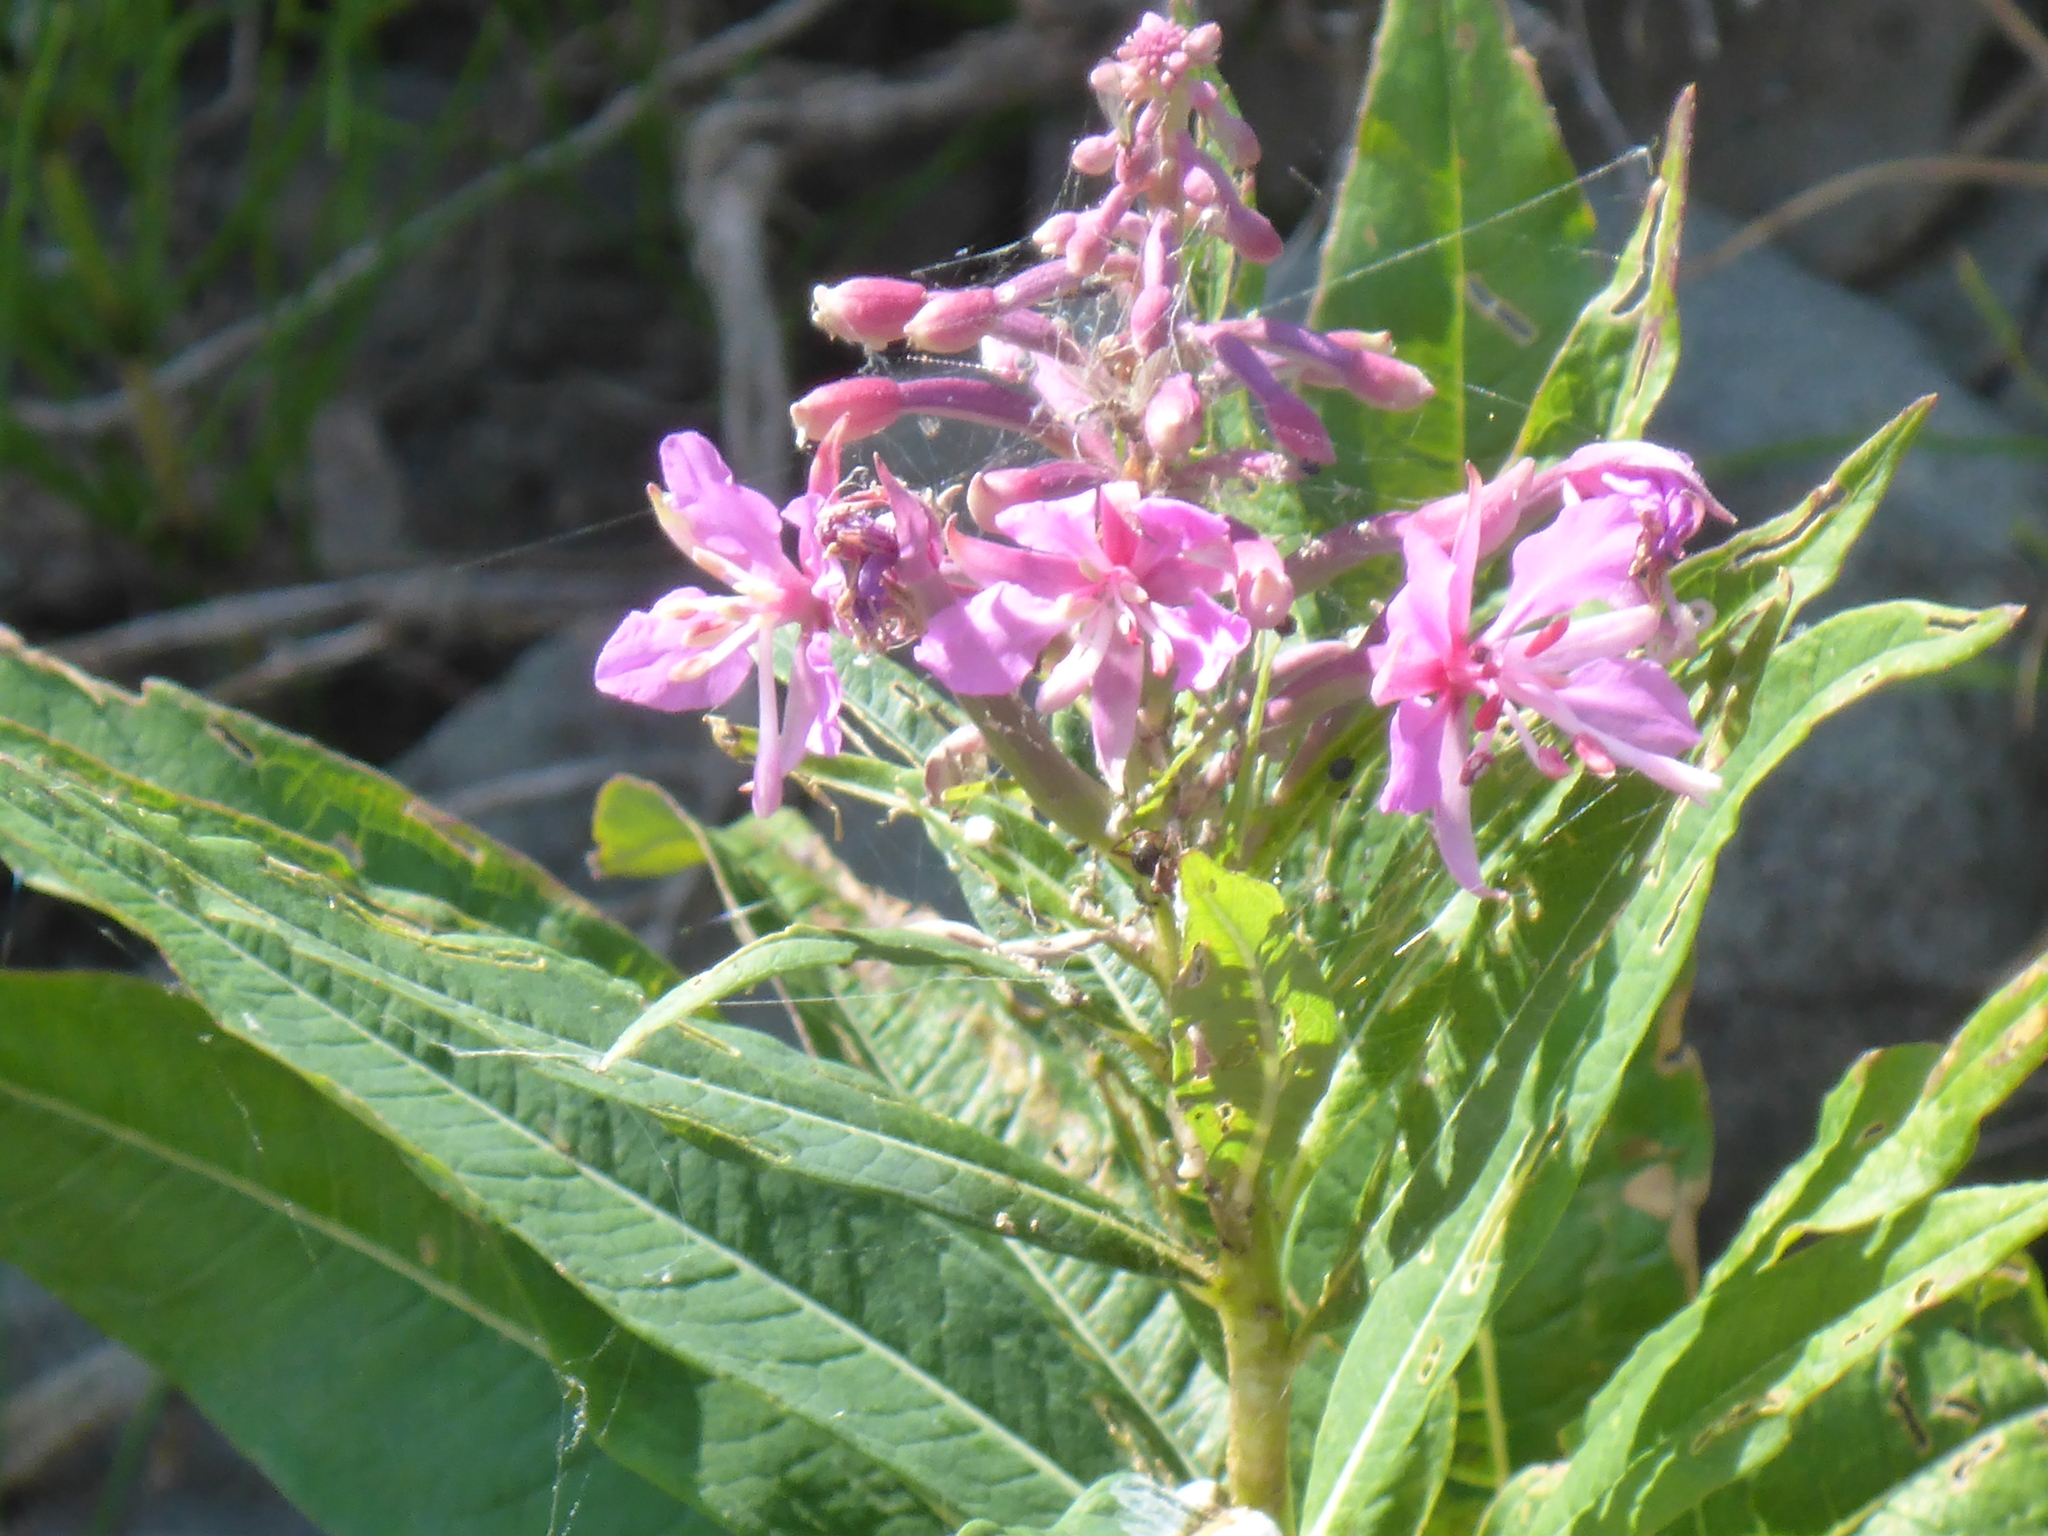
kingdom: Plantae
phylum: Tracheophyta
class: Magnoliopsida
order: Myrtales
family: Onagraceae
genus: Chamaenerion
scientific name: Chamaenerion angustifolium
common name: Fireweed
